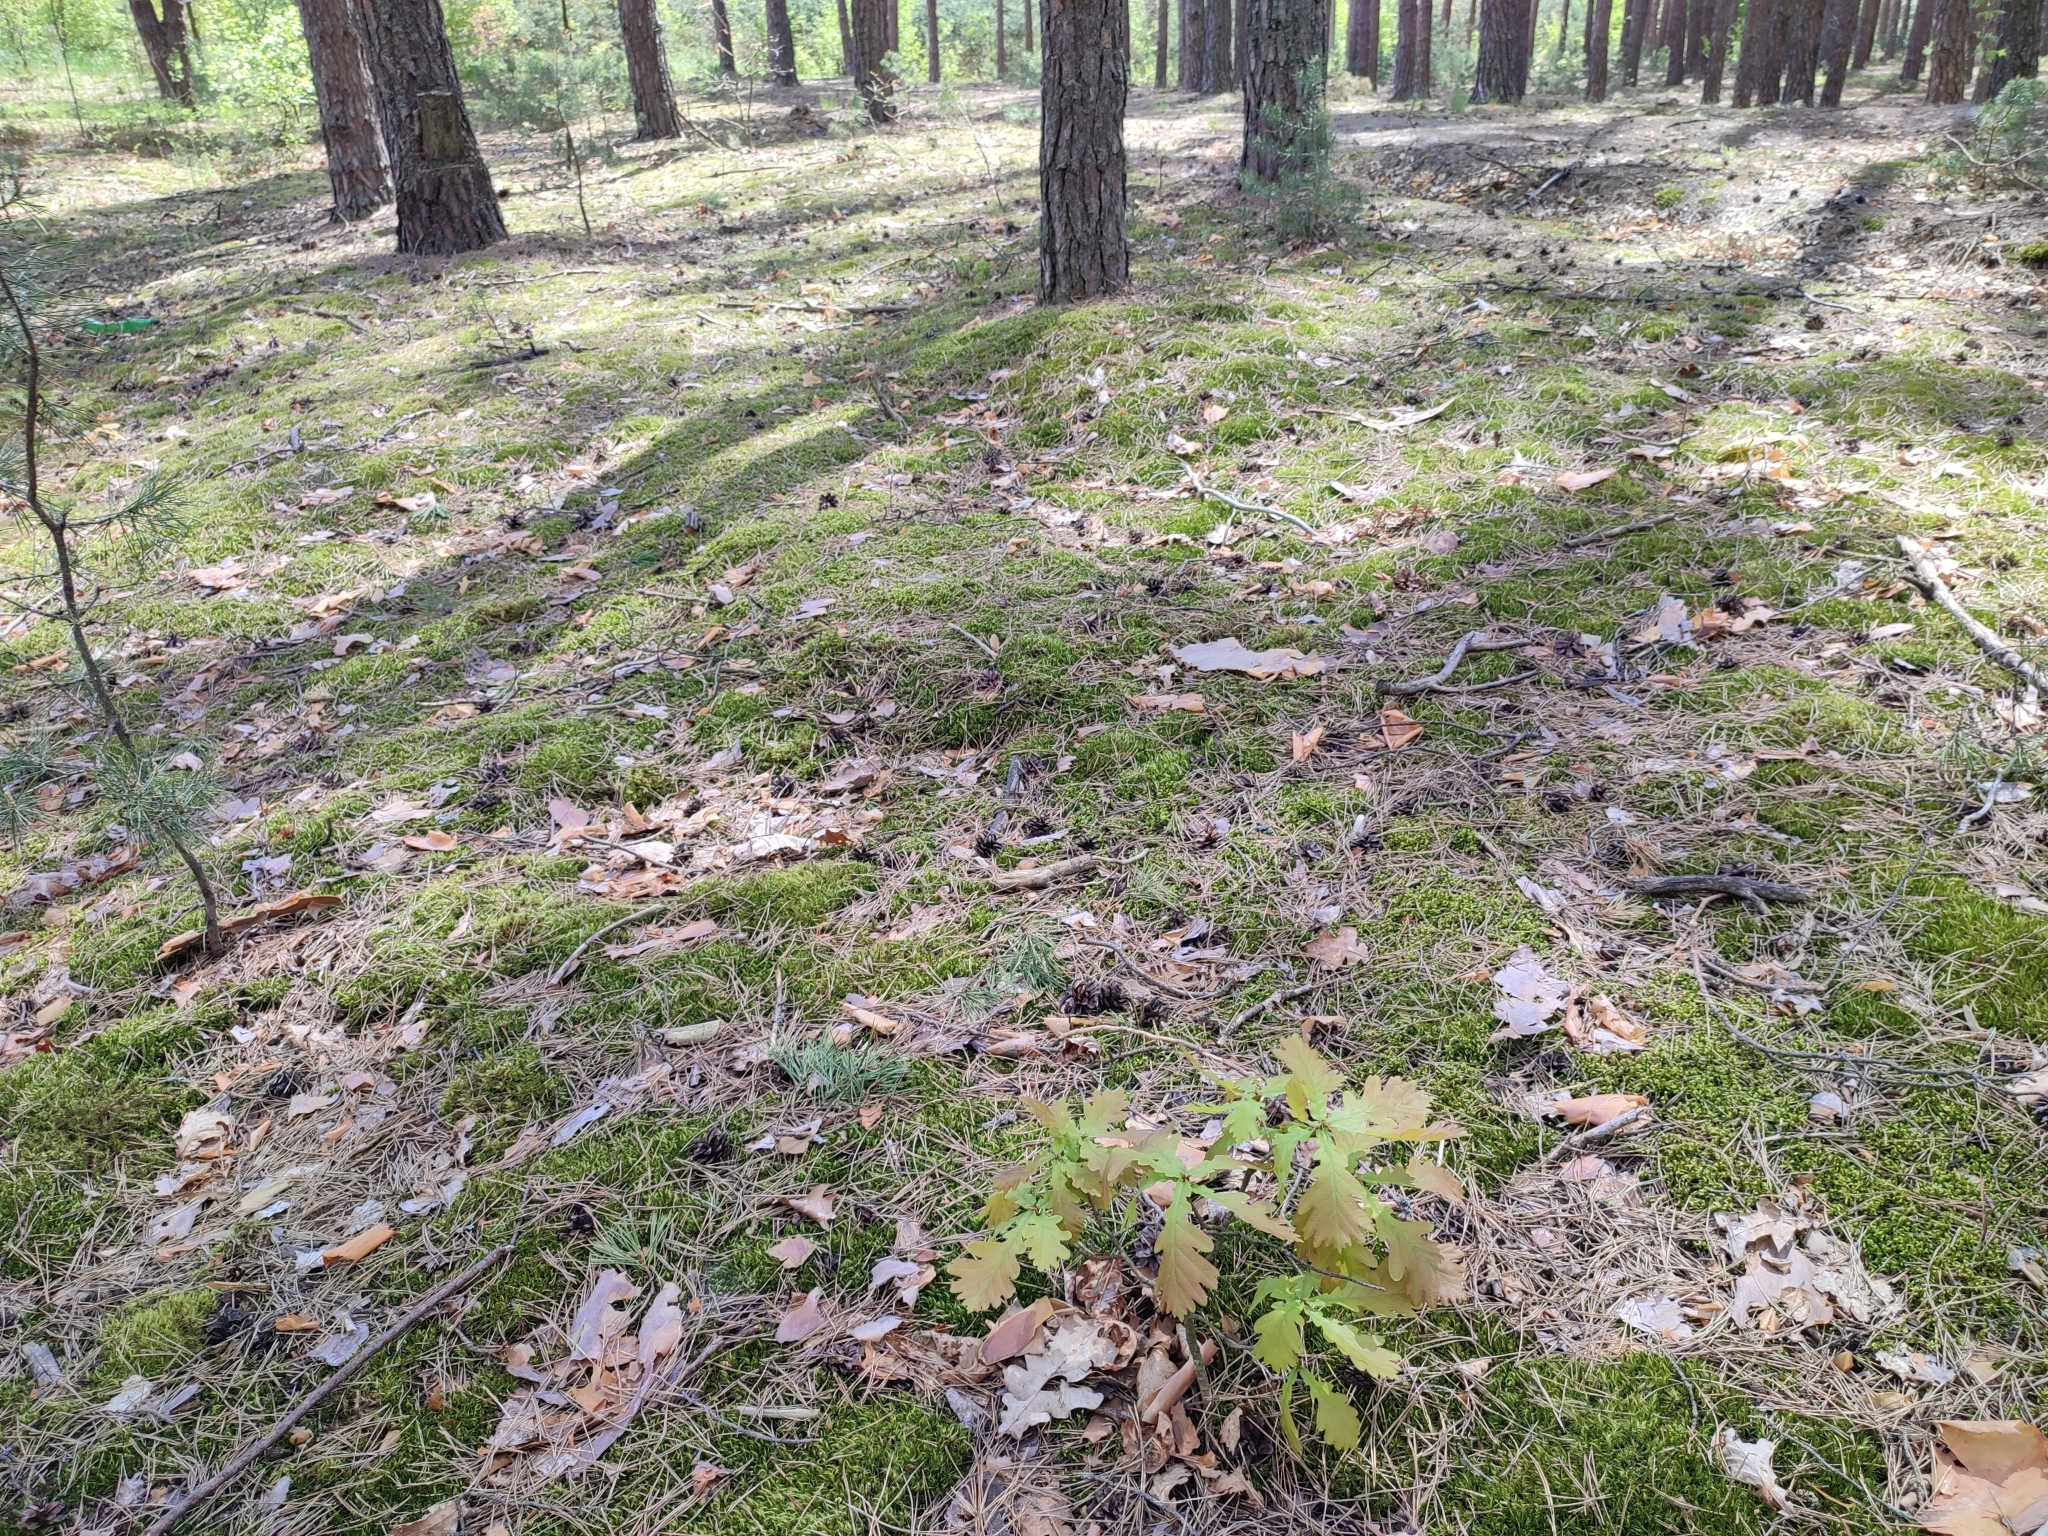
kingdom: Plantae
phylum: Tracheophyta
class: Magnoliopsida
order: Fagales
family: Fagaceae
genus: Quercus
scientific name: Quercus robur
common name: Pedunculate oak
